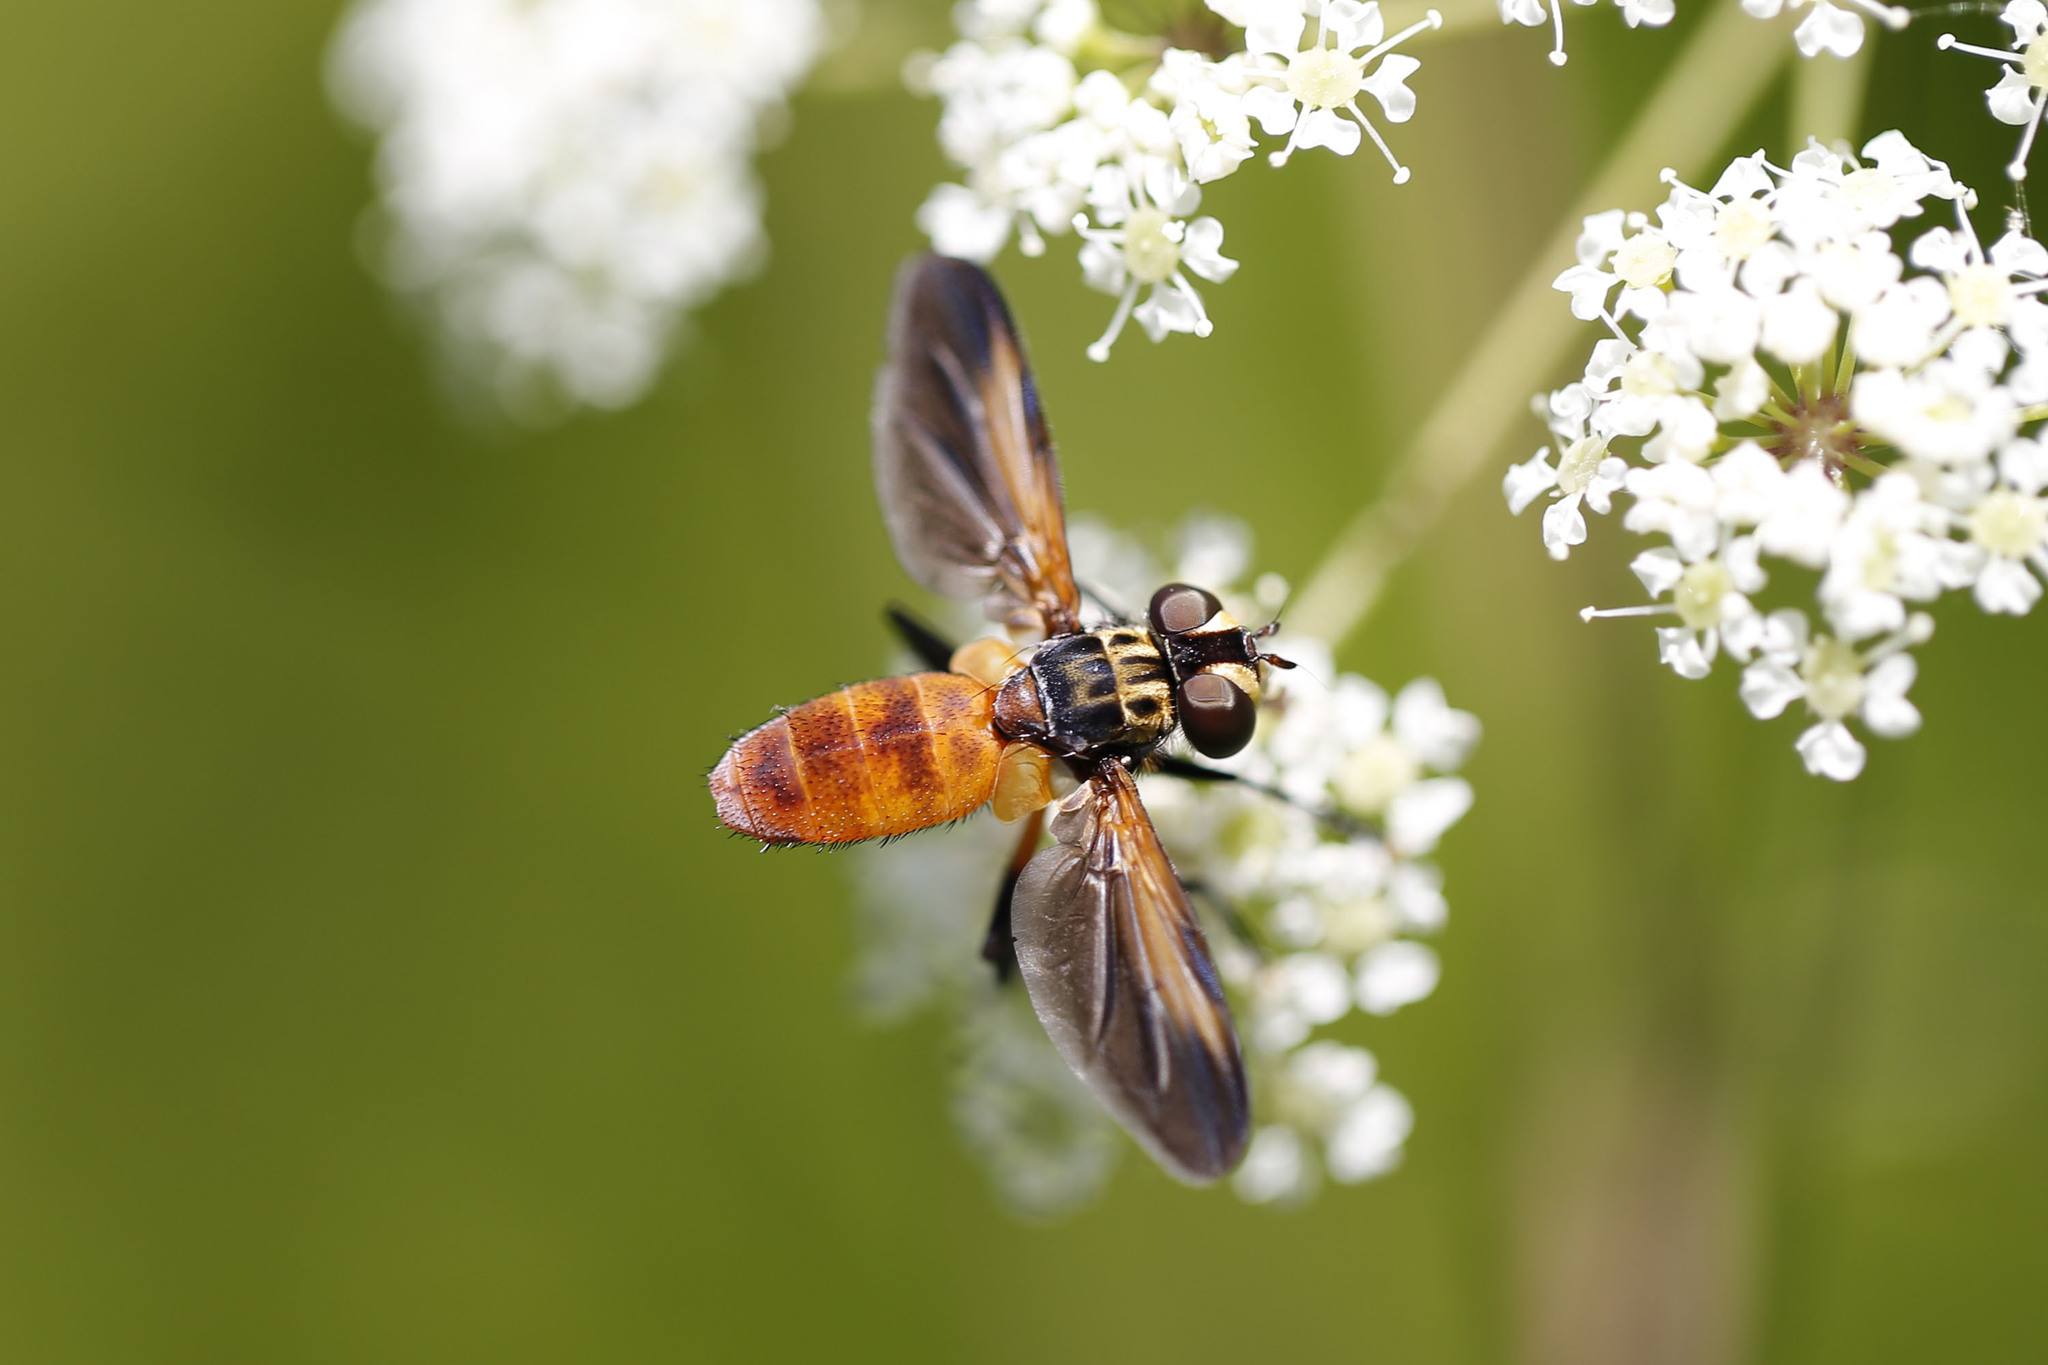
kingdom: Animalia
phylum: Arthropoda
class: Insecta
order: Diptera
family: Tachinidae
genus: Trichopoda
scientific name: Trichopoda pennipes
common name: Tachinid fly
